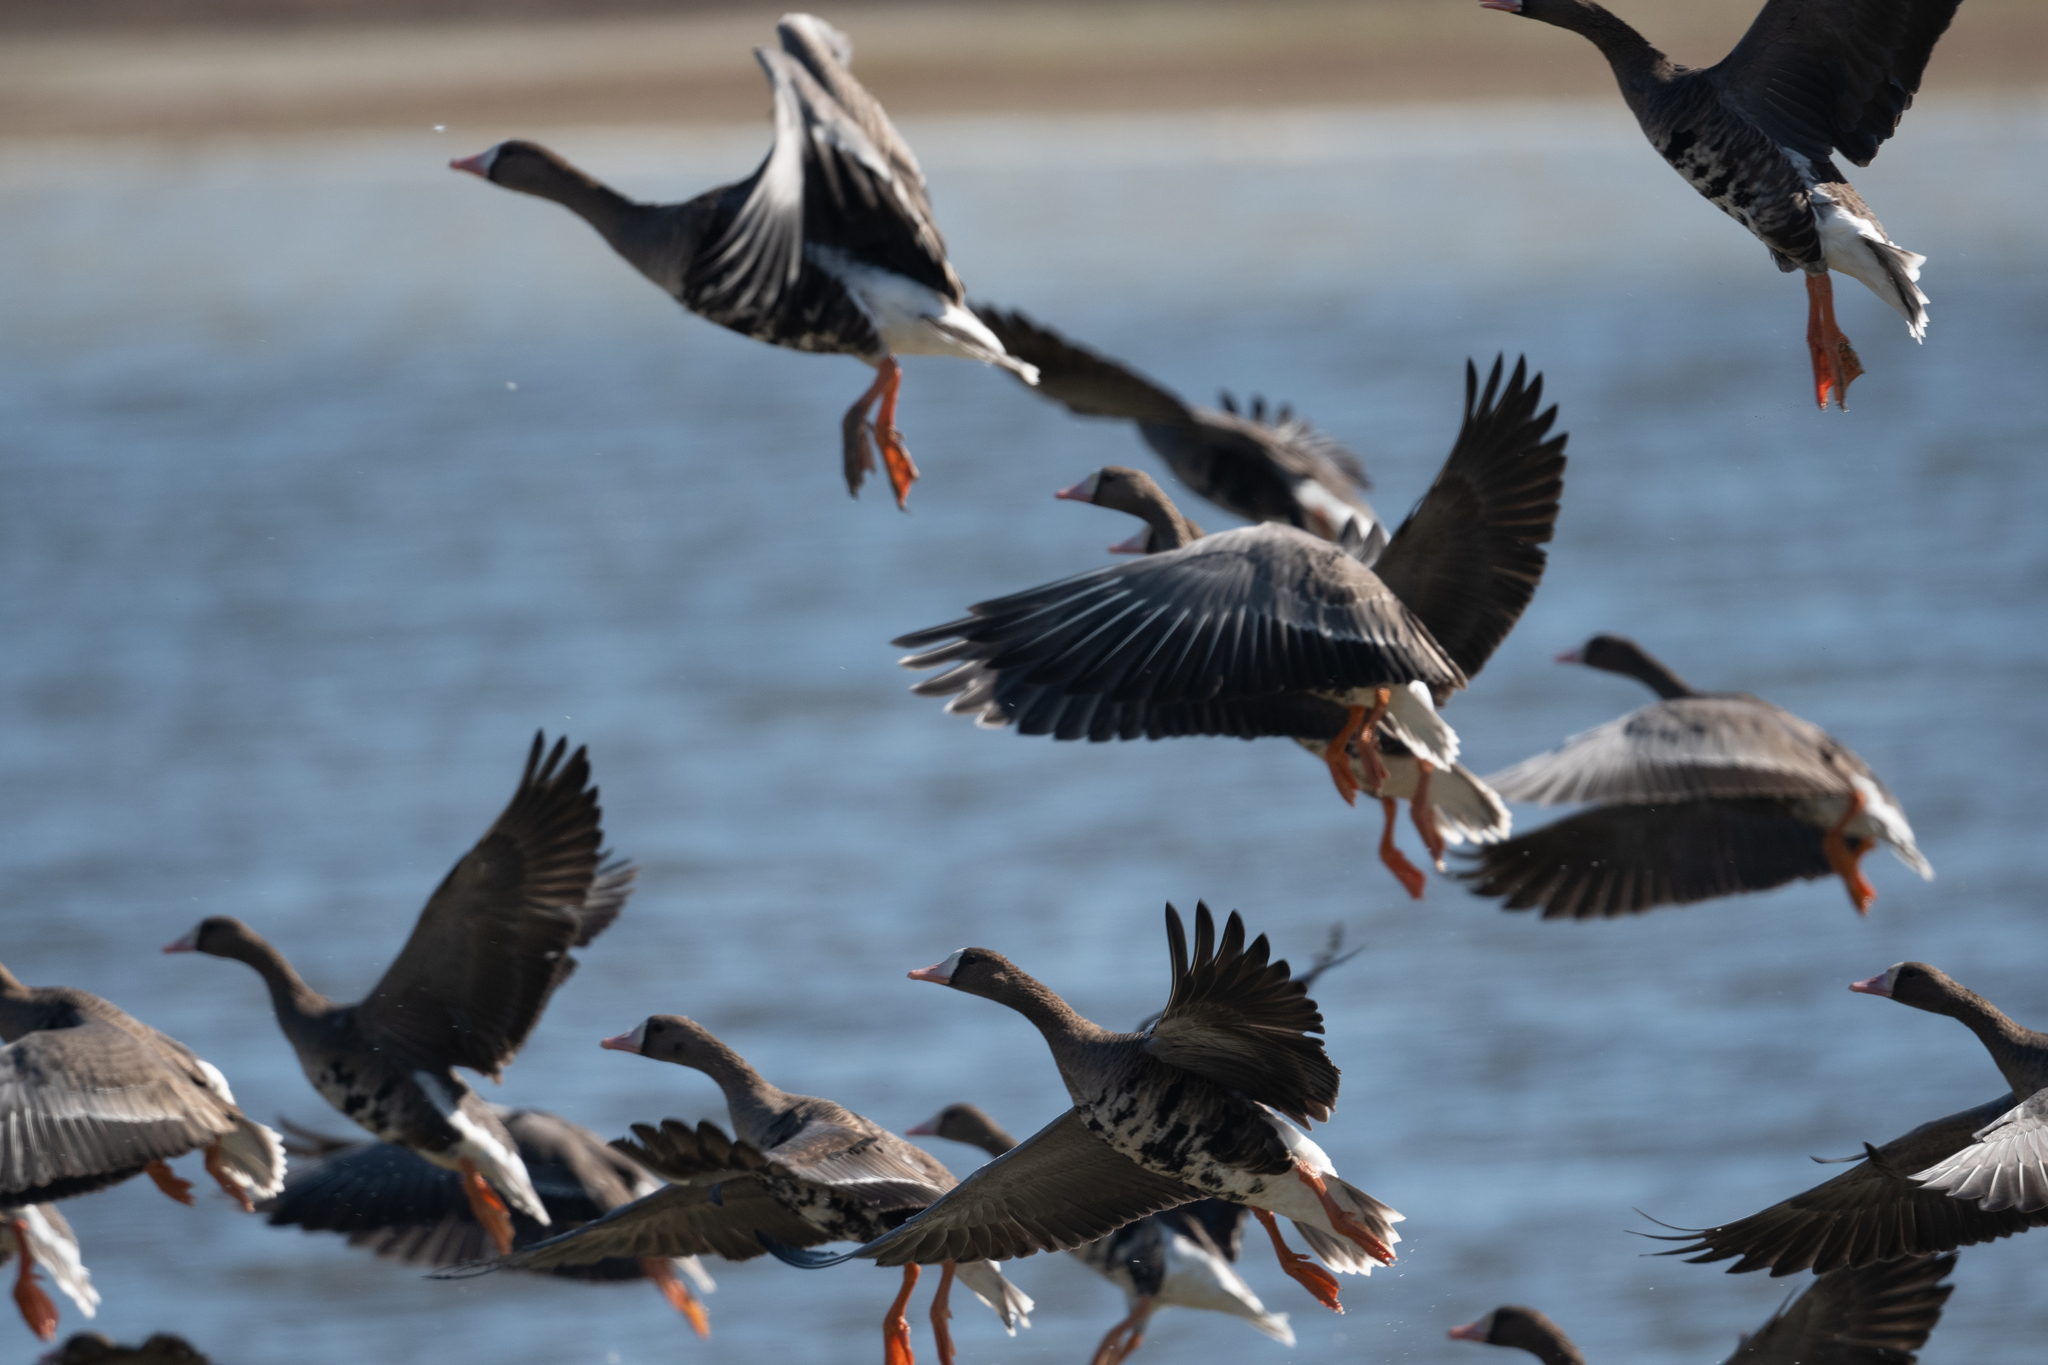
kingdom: Animalia
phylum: Chordata
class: Aves
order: Anseriformes
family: Anatidae
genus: Anser
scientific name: Anser albifrons
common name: Greater white-fronted goose
